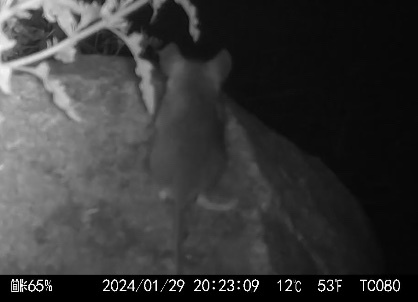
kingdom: Animalia
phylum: Chordata
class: Mammalia
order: Rodentia
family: Cricetidae
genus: Peromyscus
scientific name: Peromyscus maniculatus
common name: Deer mouse
